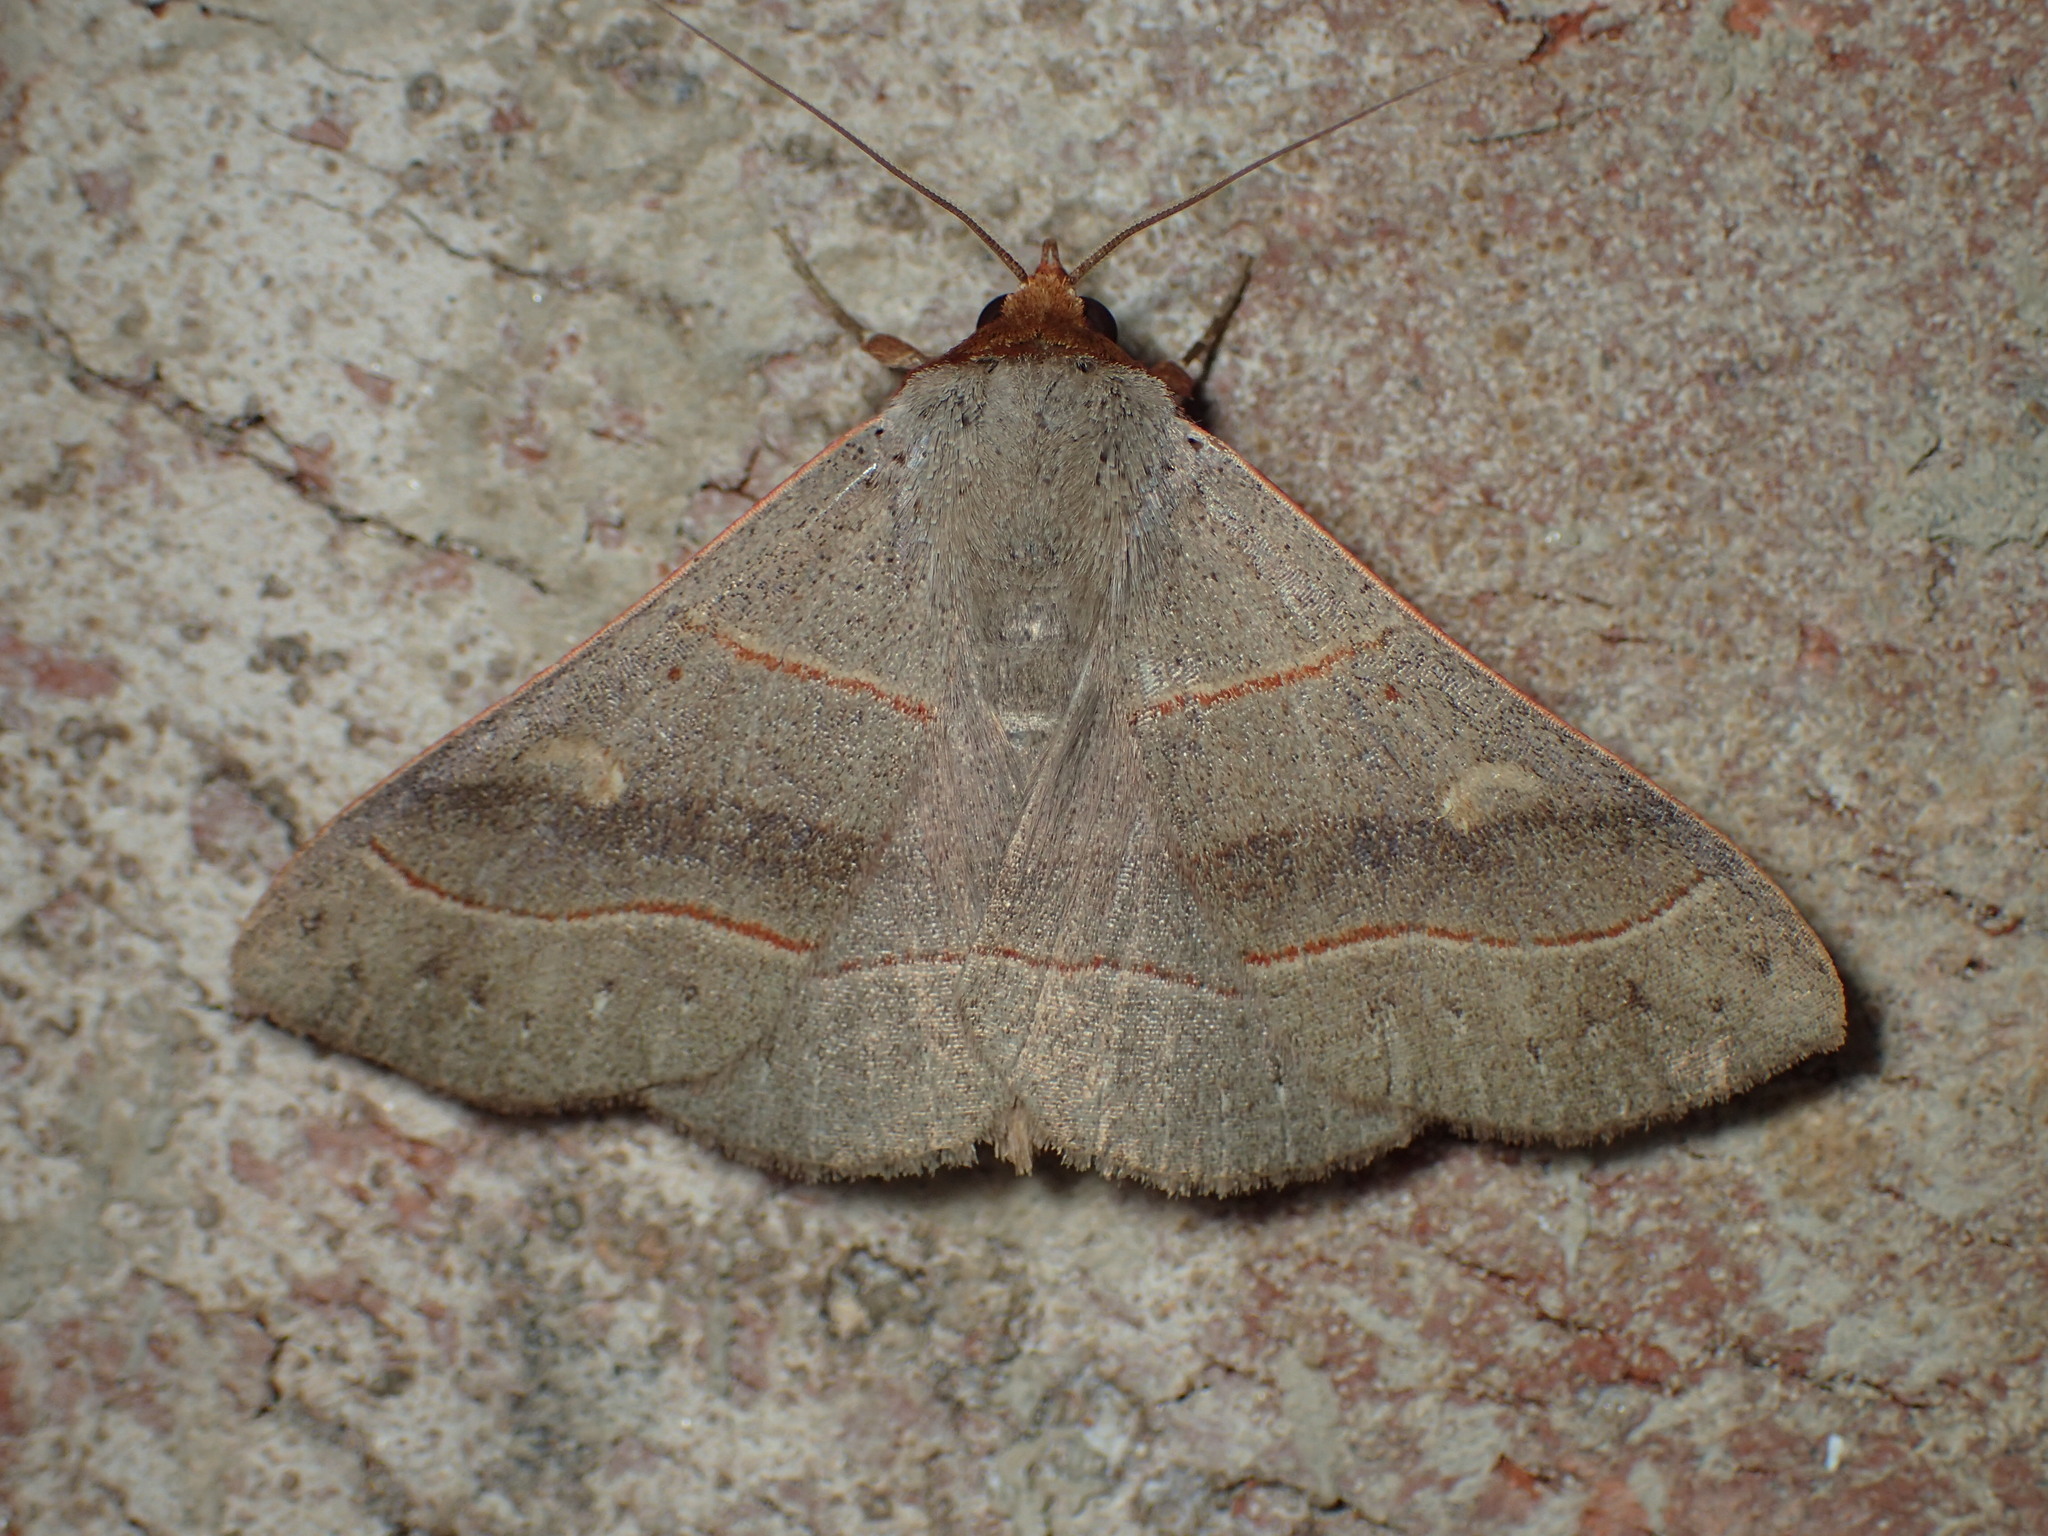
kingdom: Animalia
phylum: Arthropoda
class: Insecta
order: Lepidoptera
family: Erebidae
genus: Panopoda
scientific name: Panopoda rufimargo
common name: Red-lined panopoda moth
